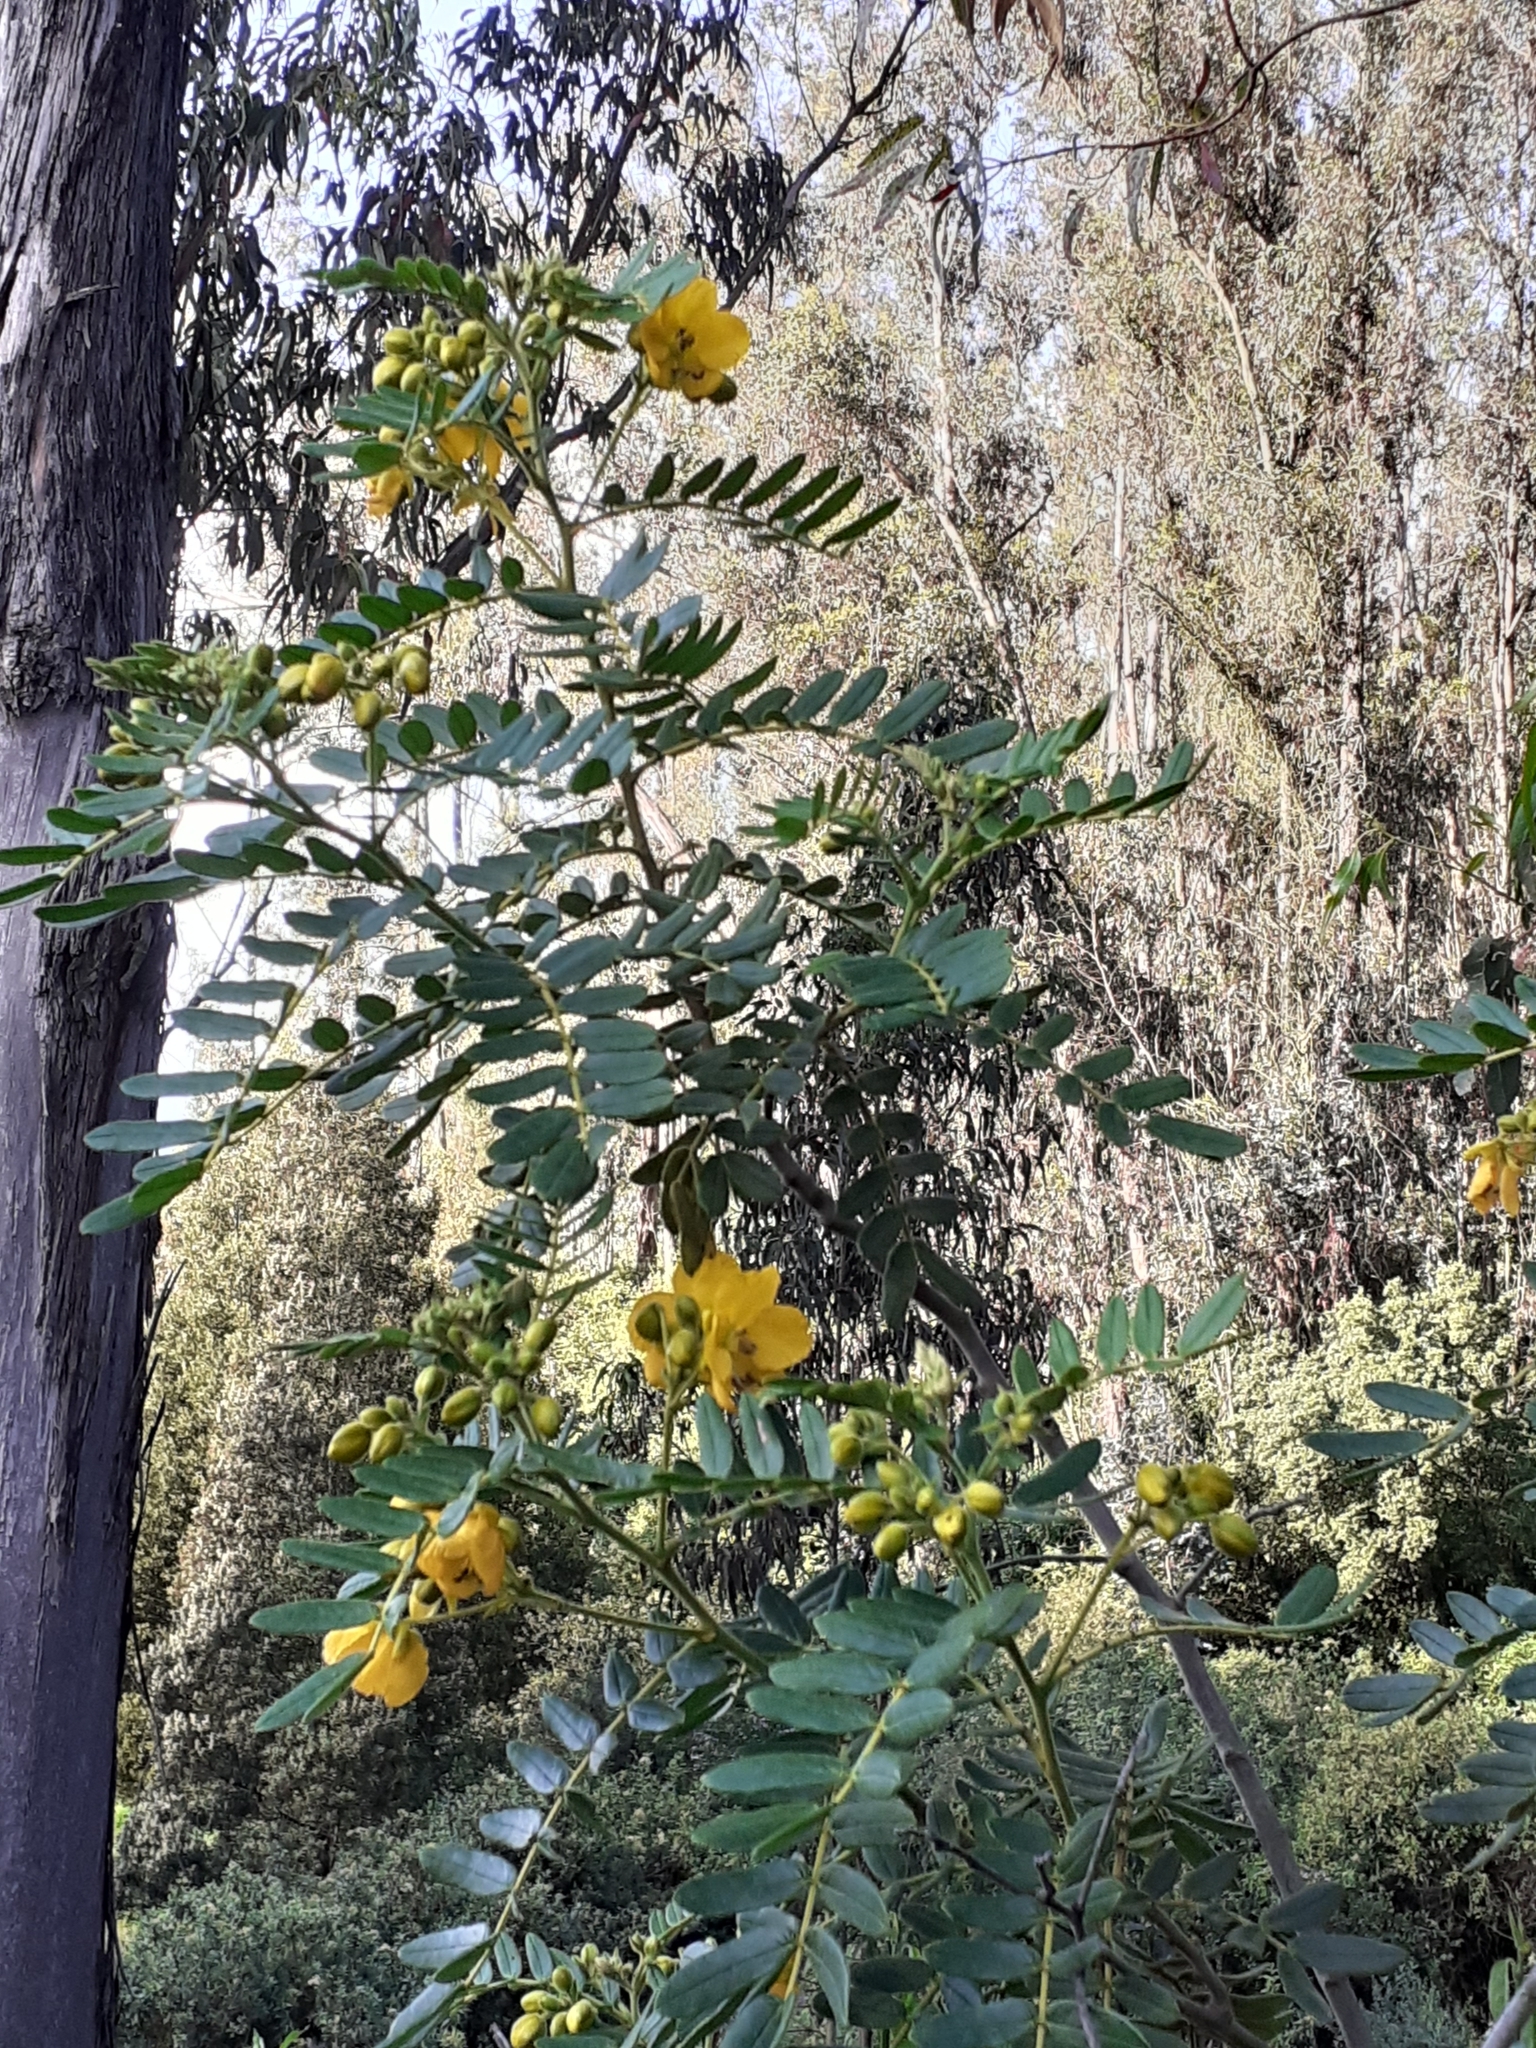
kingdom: Plantae
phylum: Tracheophyta
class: Magnoliopsida
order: Fabales
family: Fabaceae
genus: Senna
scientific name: Senna multiglandulosa
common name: Glandular senna
